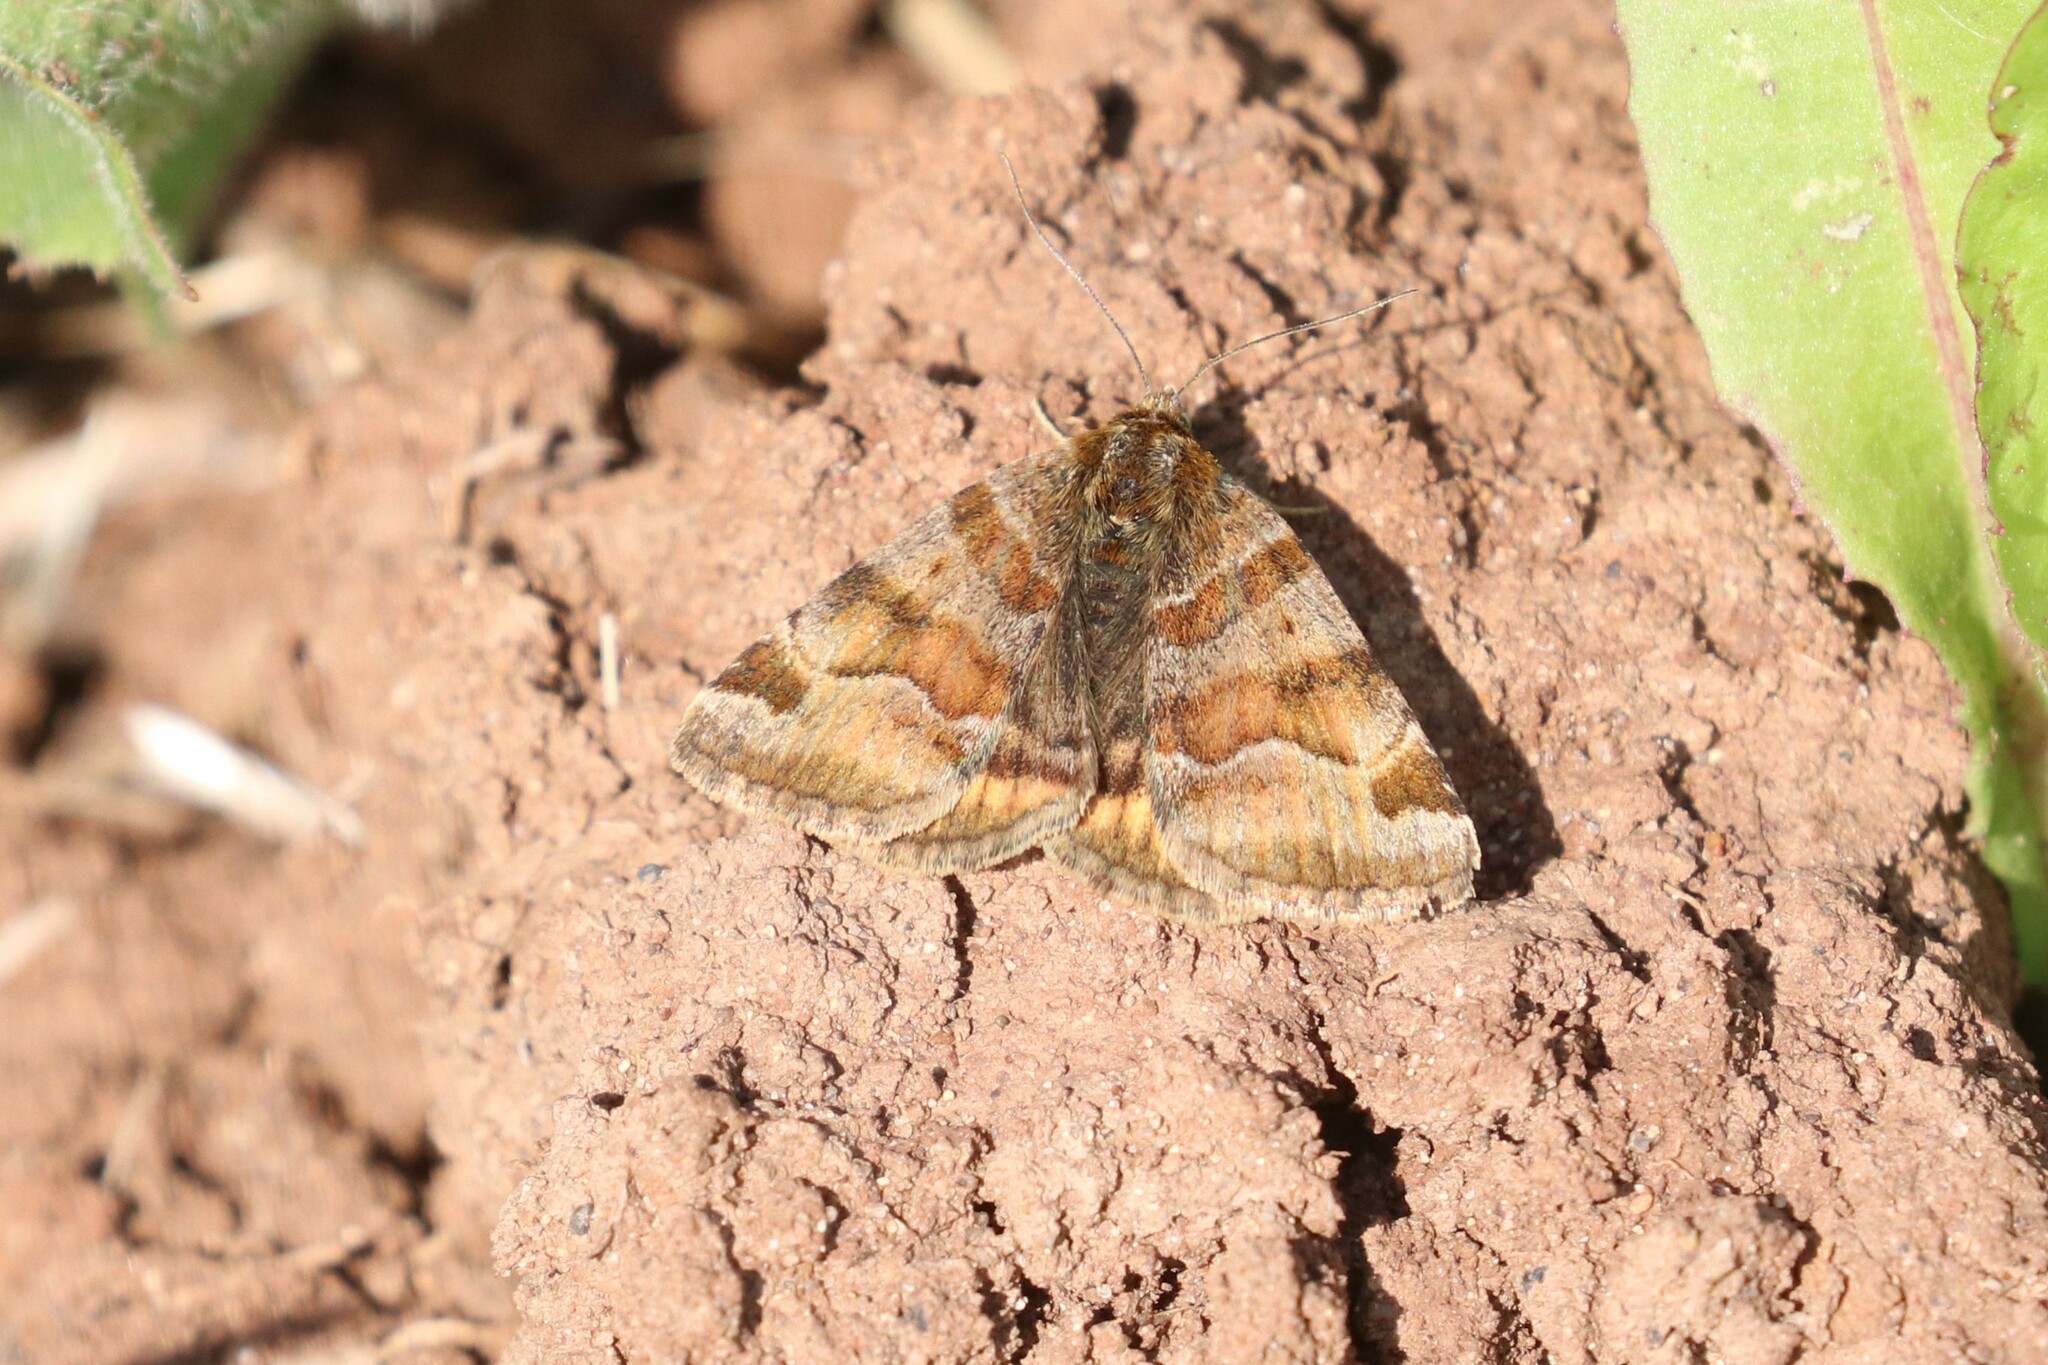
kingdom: Animalia
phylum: Arthropoda
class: Insecta
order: Lepidoptera
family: Erebidae
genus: Euclidia
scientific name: Euclidia glyphica
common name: Burnet companion
